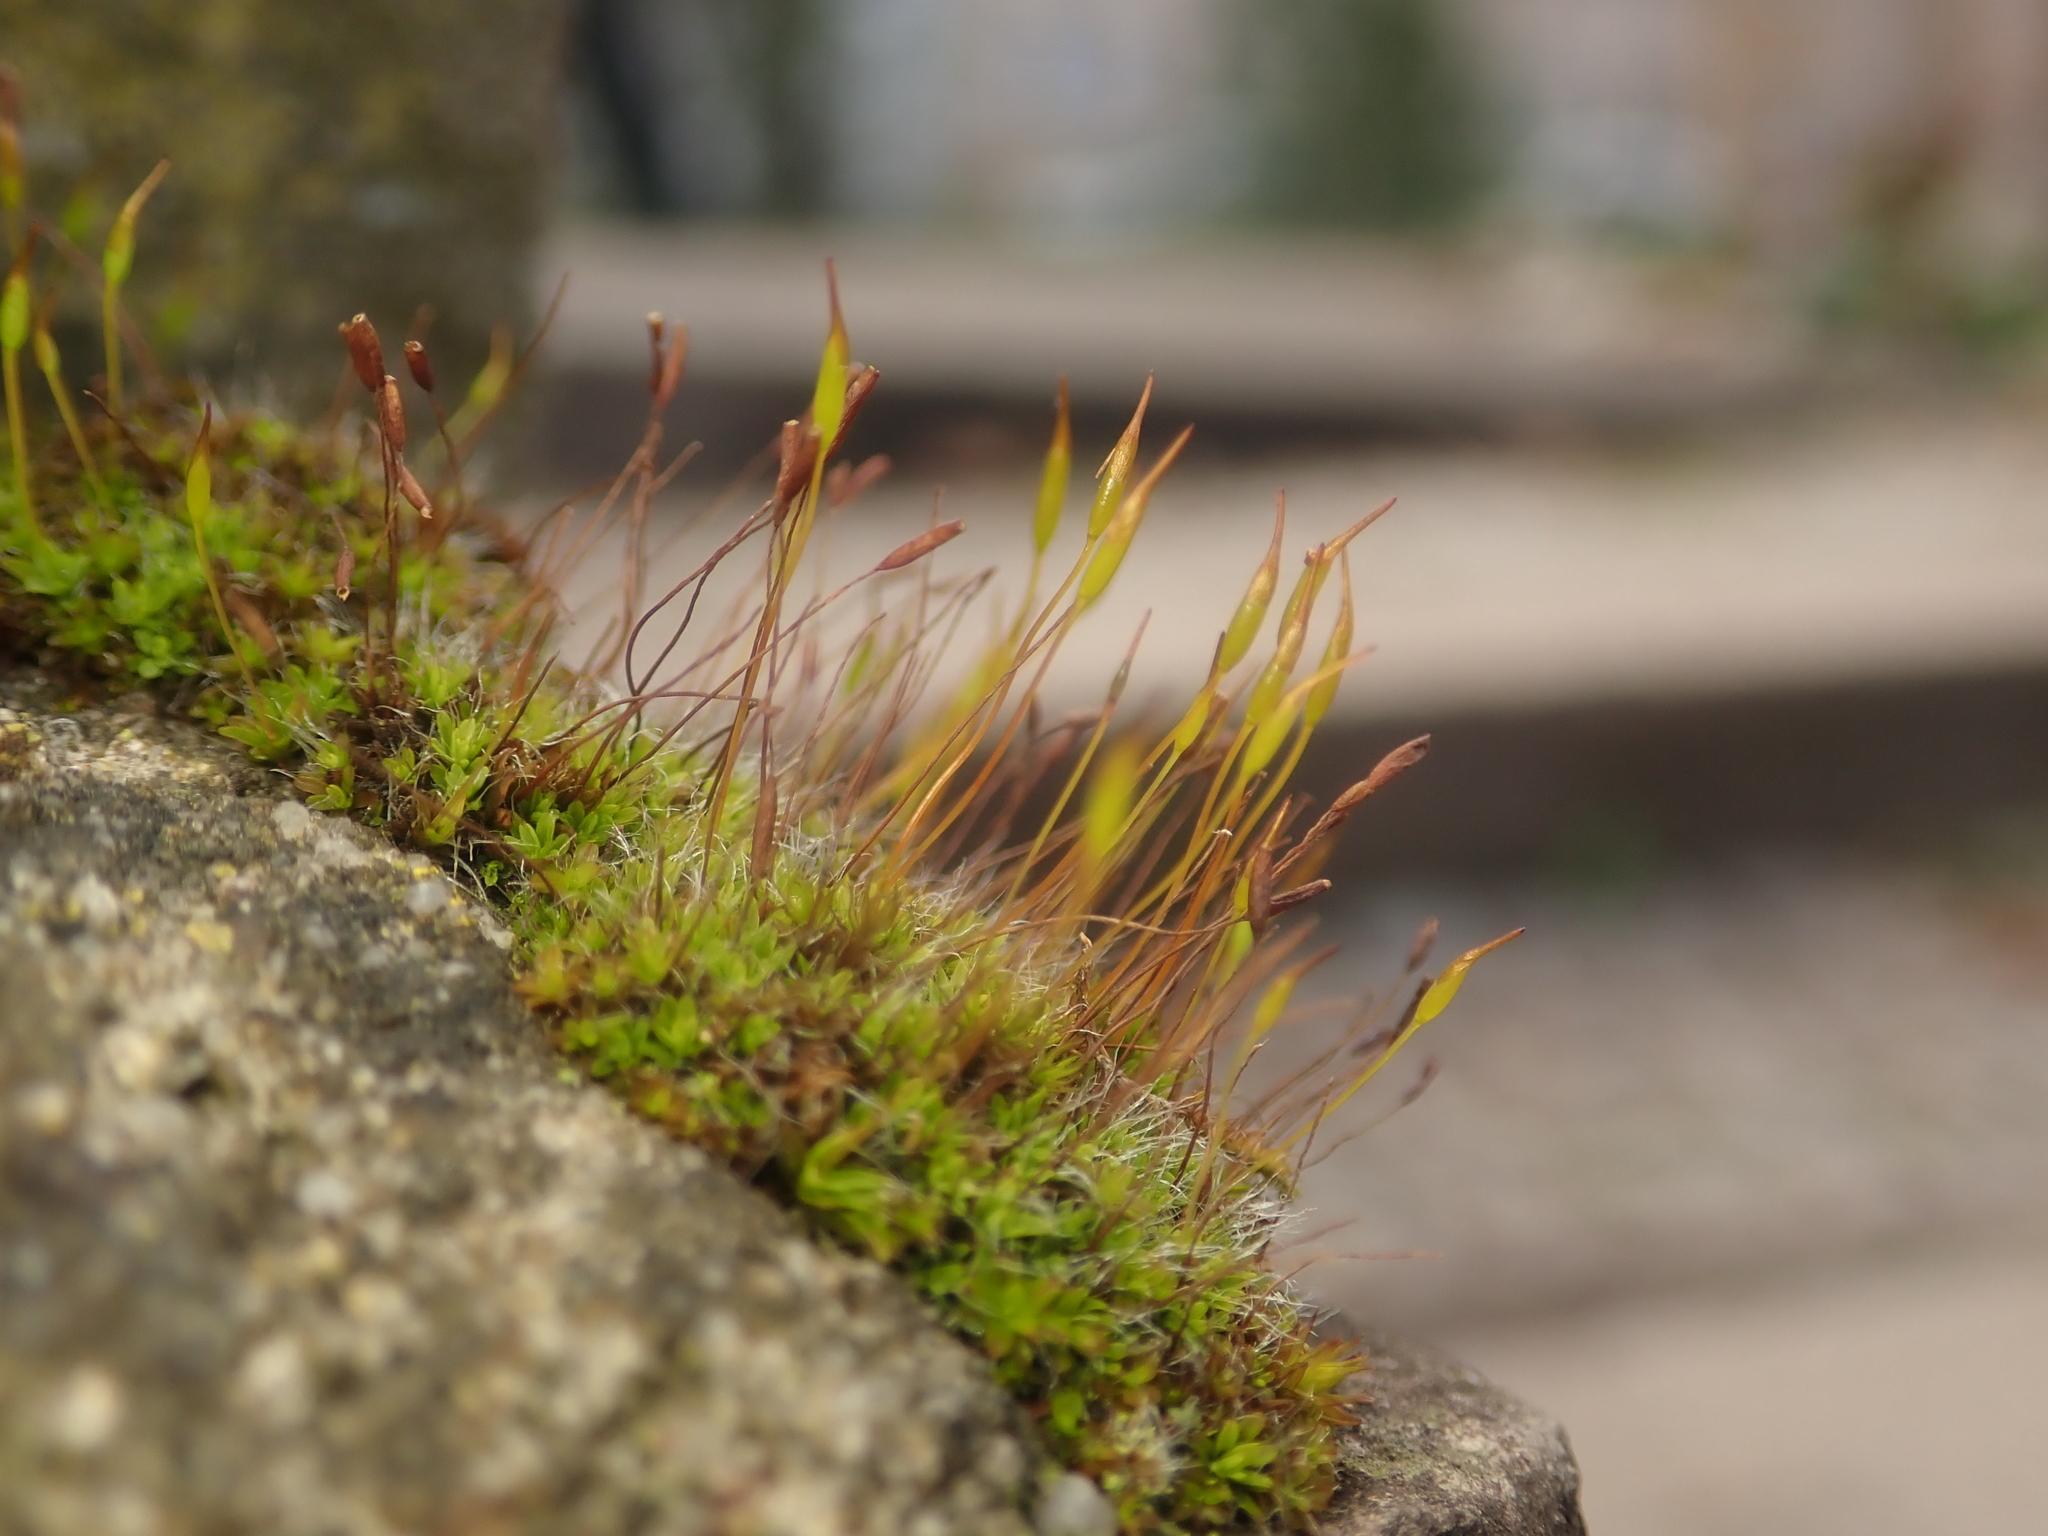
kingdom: Plantae
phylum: Bryophyta
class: Bryopsida
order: Pottiales
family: Pottiaceae
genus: Tortula
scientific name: Tortula muralis
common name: Wall screw-moss
